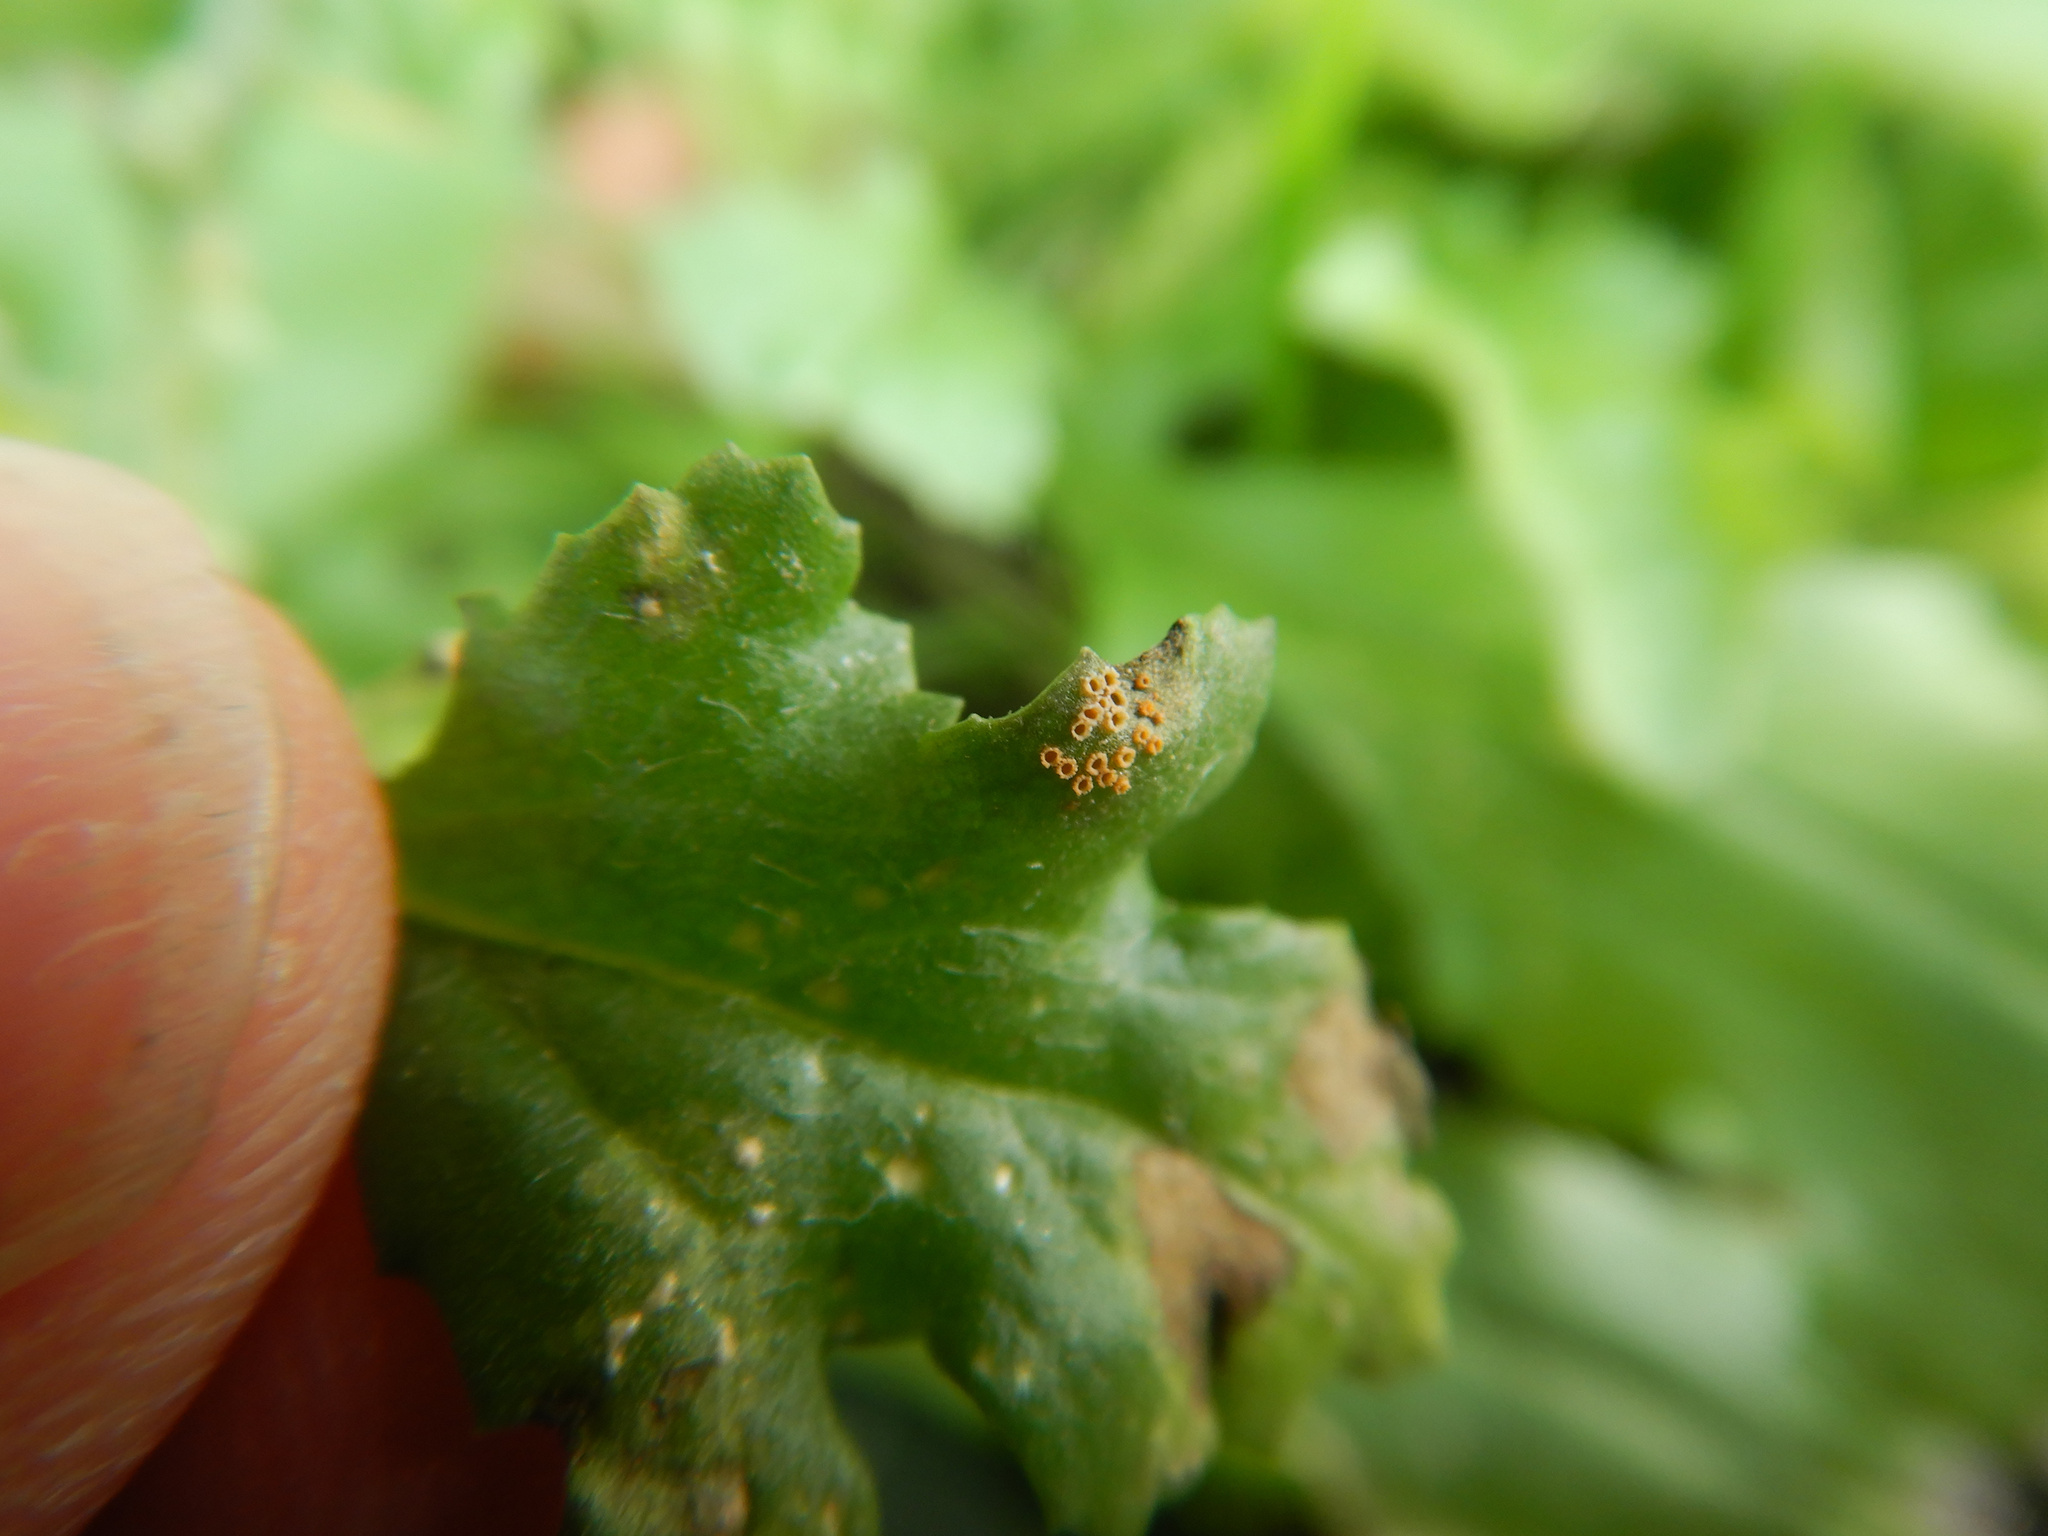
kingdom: Fungi
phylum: Basidiomycota
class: Pucciniomycetes
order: Pucciniales
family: Pucciniaceae
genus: Puccinia
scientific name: Puccinia lagenophorae
